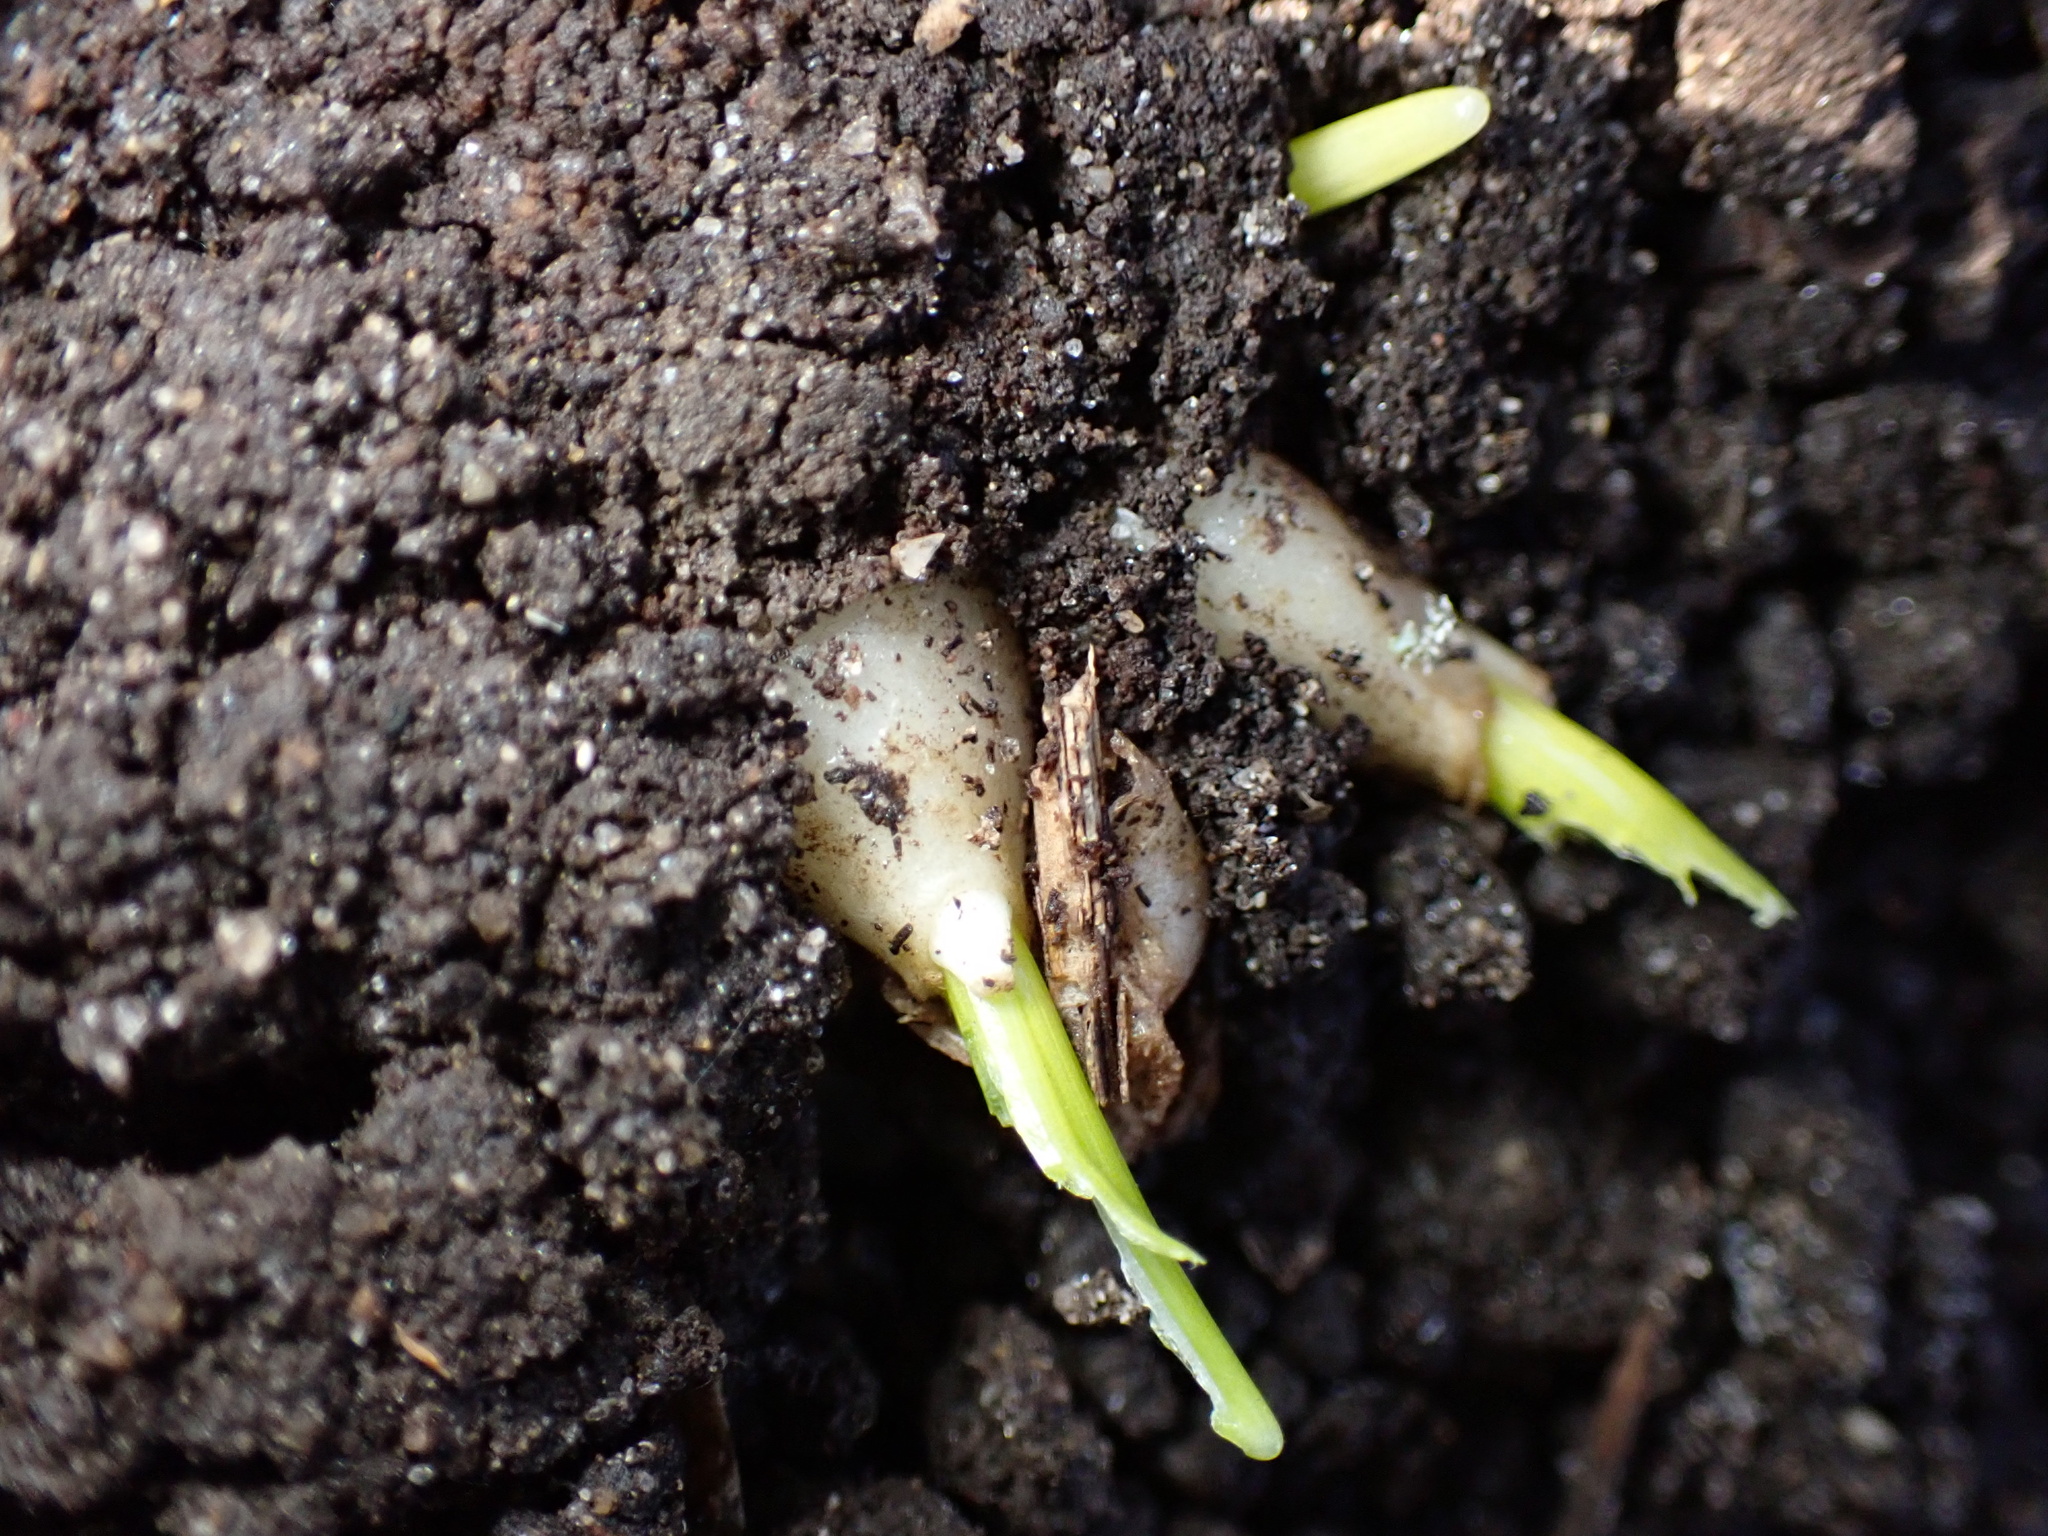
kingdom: Plantae
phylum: Tracheophyta
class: Liliopsida
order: Asparagales
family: Asparagaceae
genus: Ornithogalum
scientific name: Ornithogalum umbellatum
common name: Garden star-of-bethlehem
